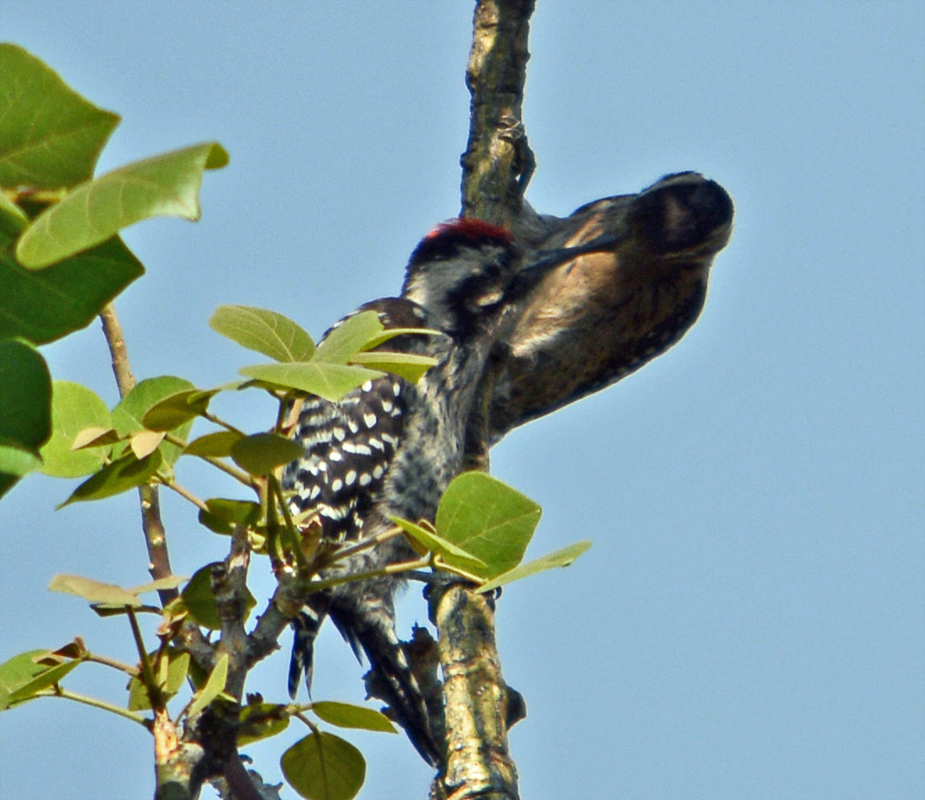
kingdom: Animalia
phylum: Chordata
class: Aves
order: Piciformes
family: Picidae
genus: Dryobates
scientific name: Dryobates scalaris
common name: Ladder-backed woodpecker
